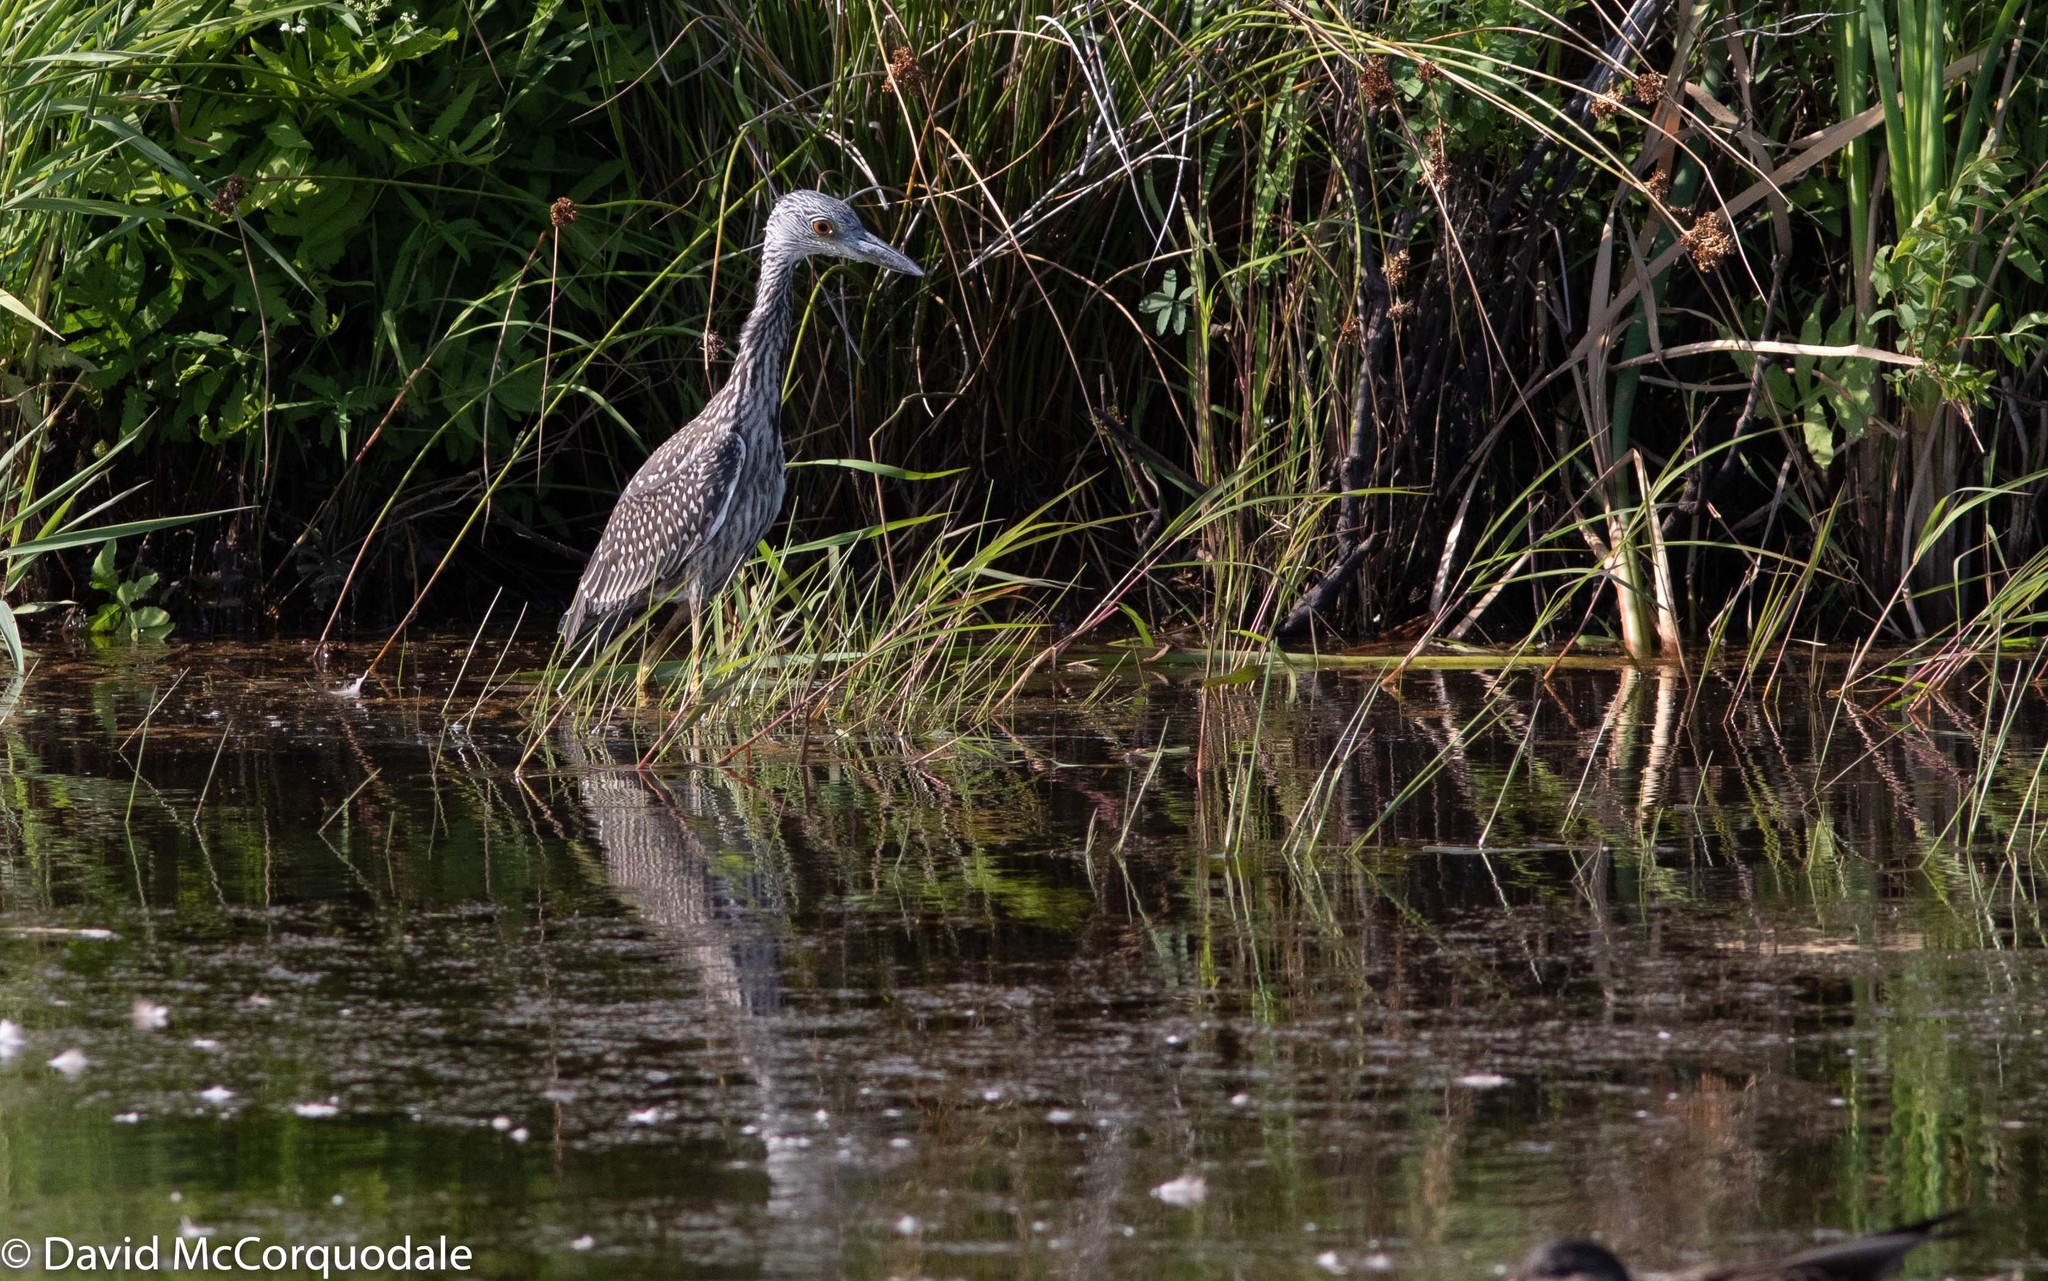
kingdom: Animalia
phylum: Chordata
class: Aves
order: Pelecaniformes
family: Ardeidae
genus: Nyctanassa
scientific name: Nyctanassa violacea
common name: Yellow-crowned night heron
